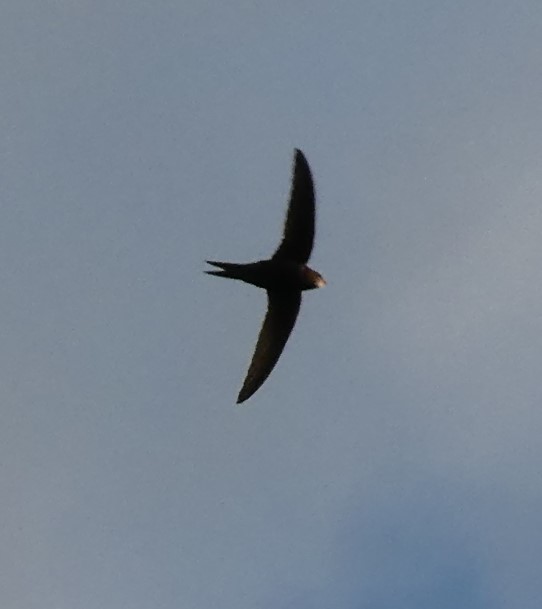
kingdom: Animalia
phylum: Chordata
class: Aves
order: Apodiformes
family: Apodidae
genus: Apus
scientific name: Apus apus
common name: Common swift
